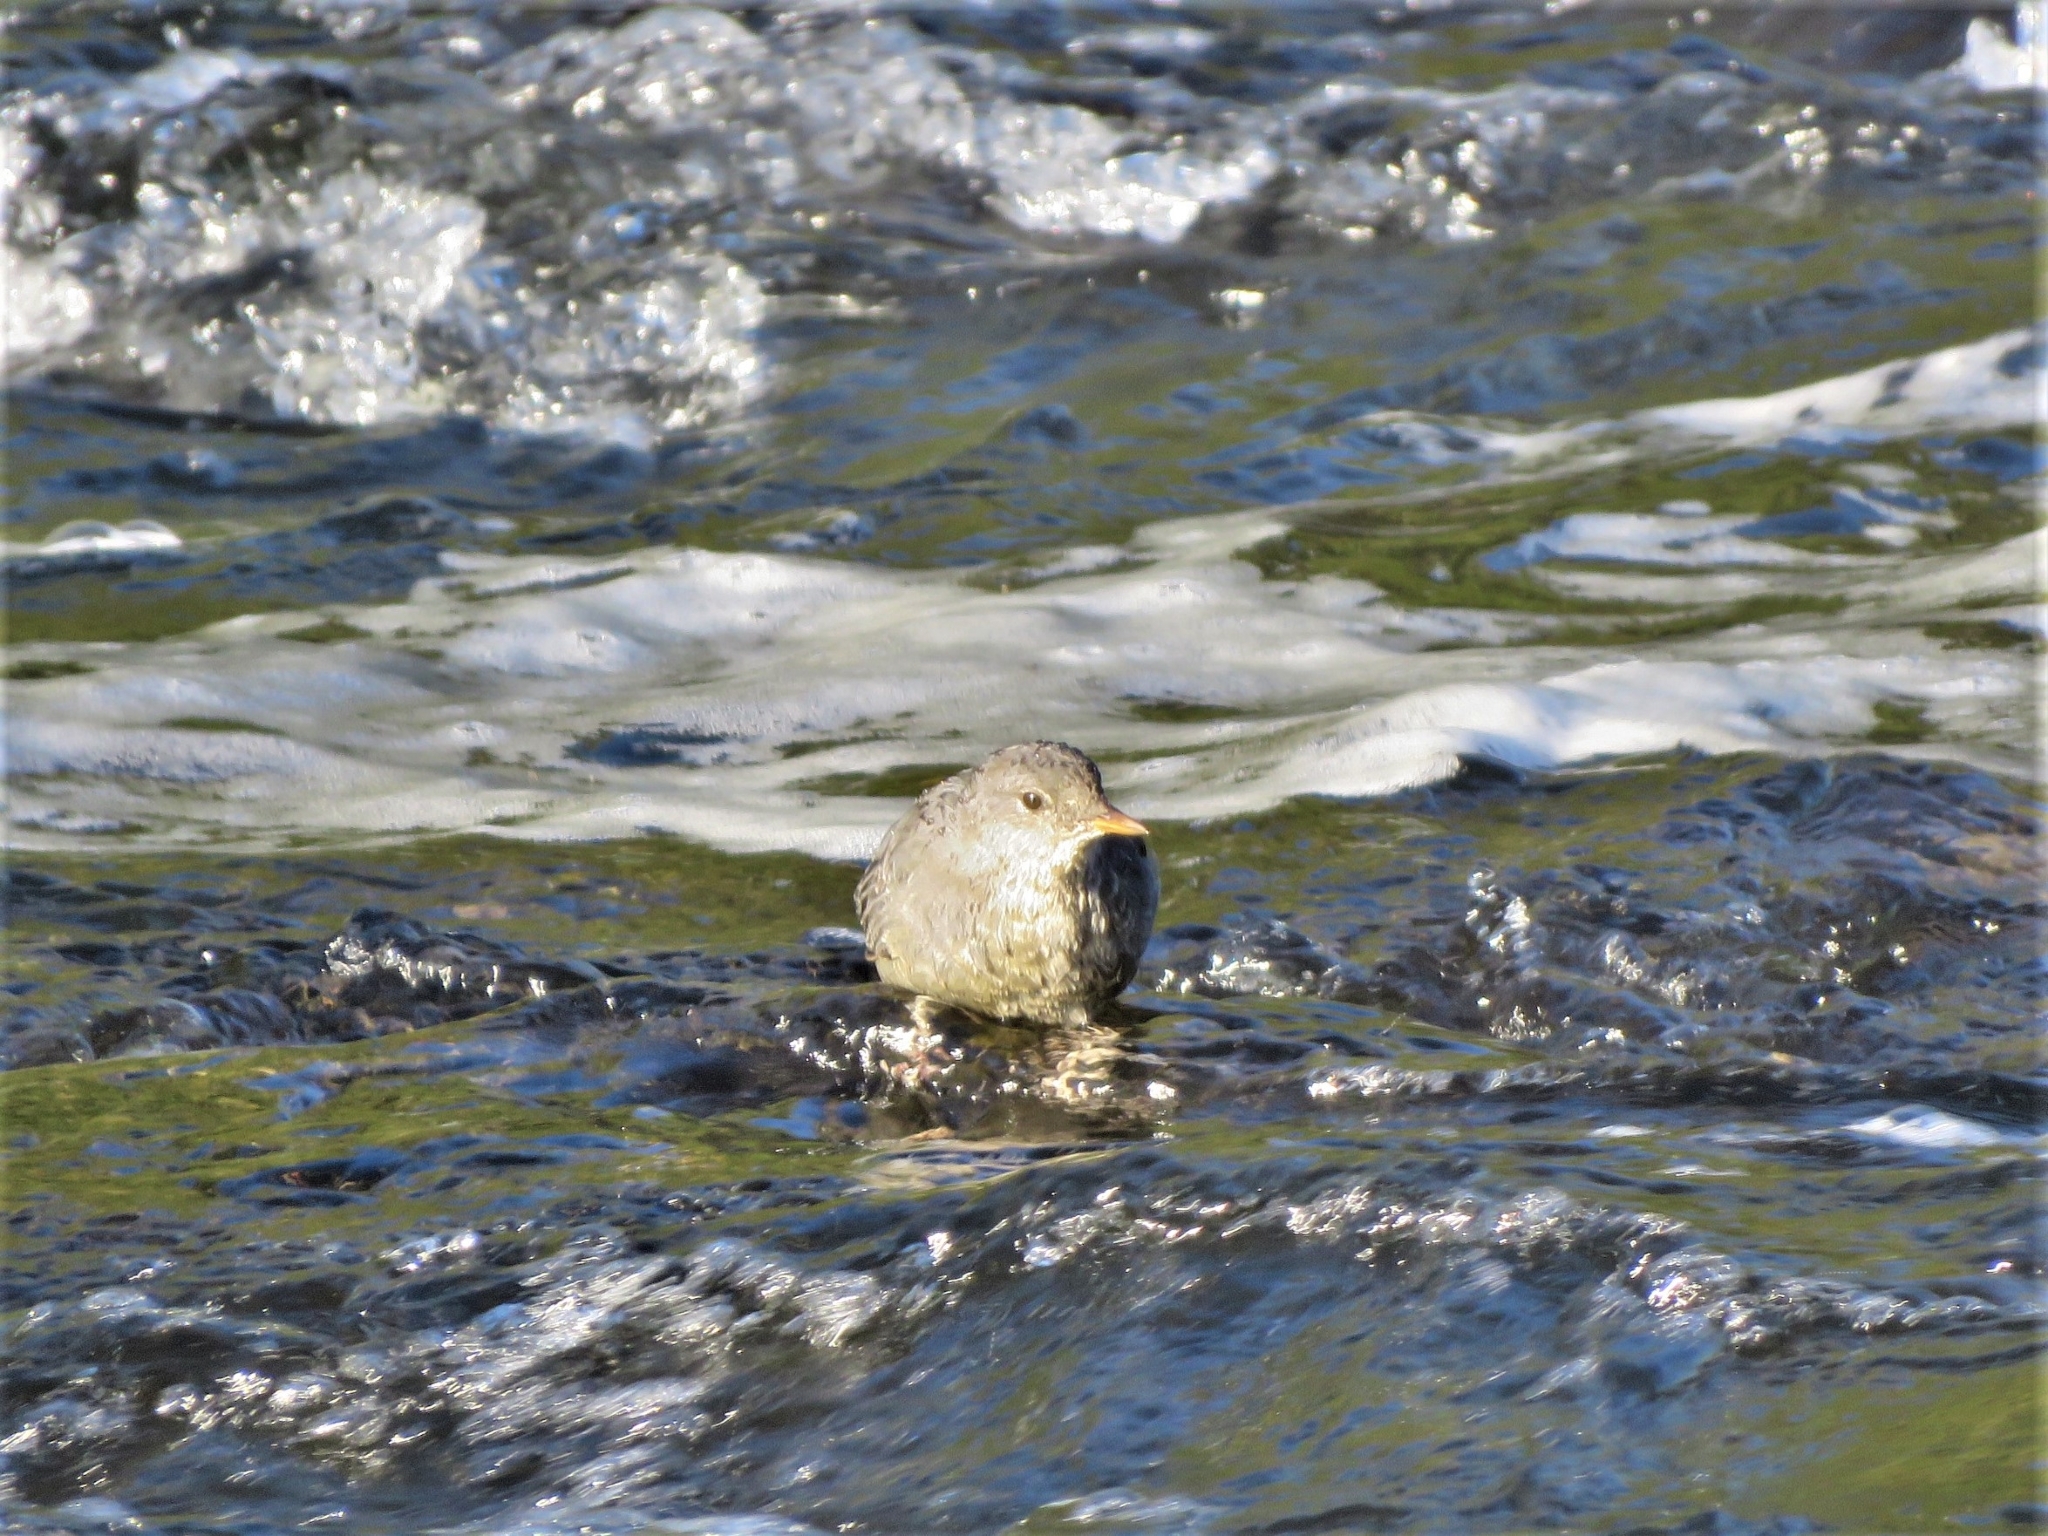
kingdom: Animalia
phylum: Chordata
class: Aves
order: Passeriformes
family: Cinclidae
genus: Cinclus
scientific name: Cinclus mexicanus
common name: American dipper
